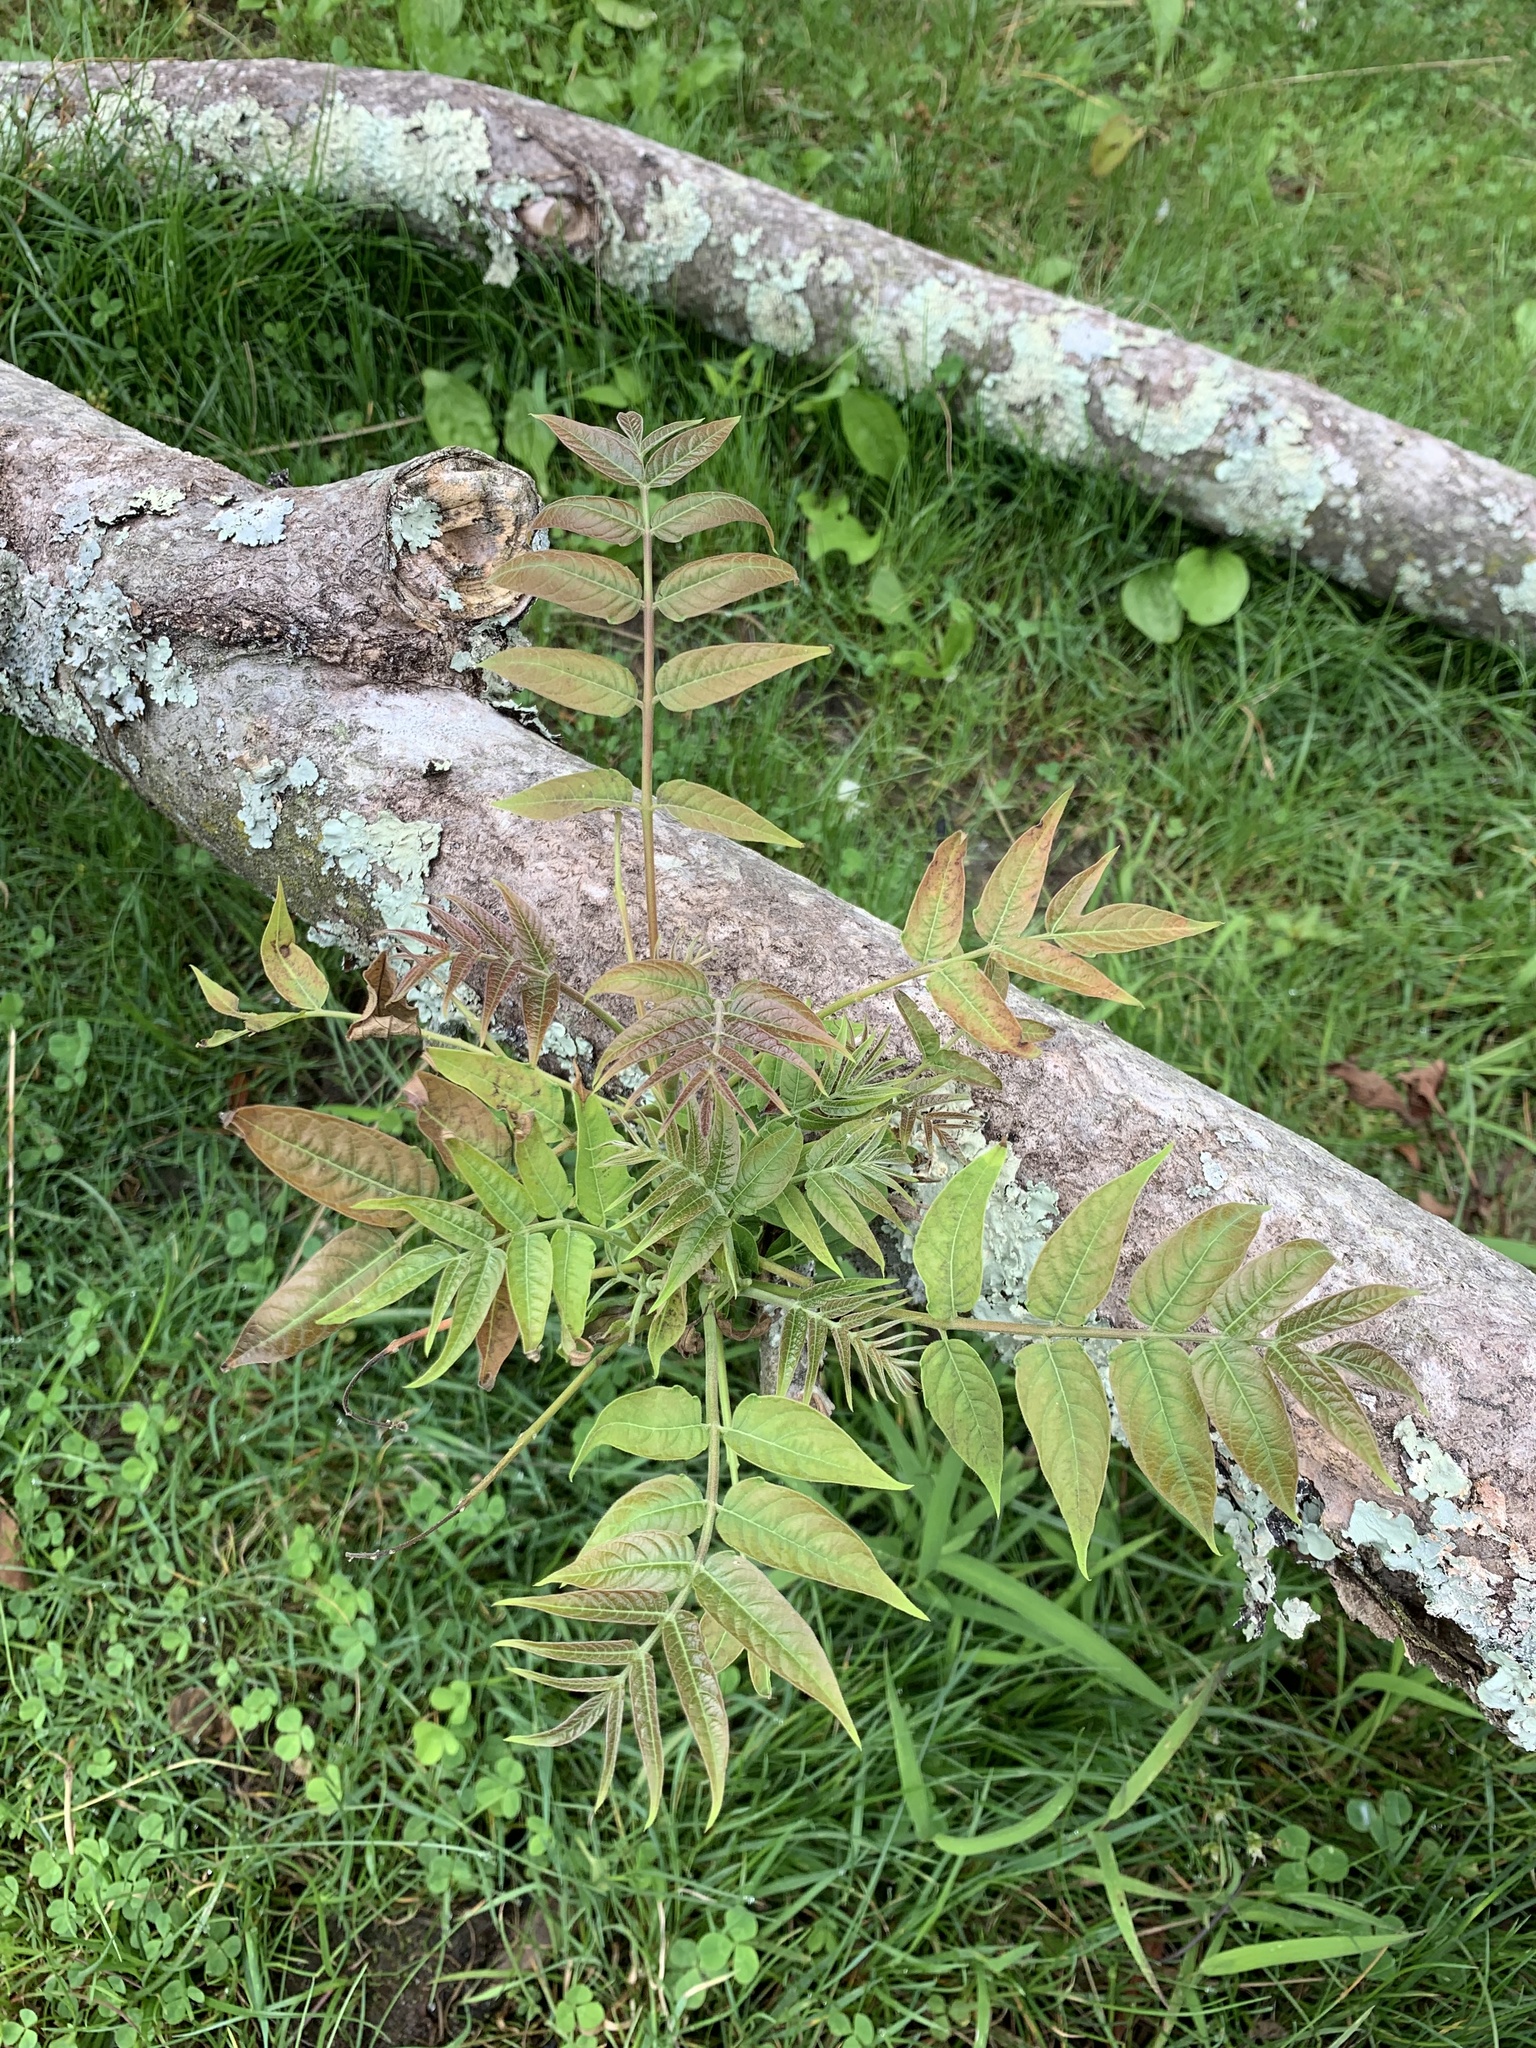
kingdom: Plantae
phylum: Tracheophyta
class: Magnoliopsida
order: Sapindales
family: Simaroubaceae
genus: Ailanthus
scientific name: Ailanthus altissima
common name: Tree-of-heaven
